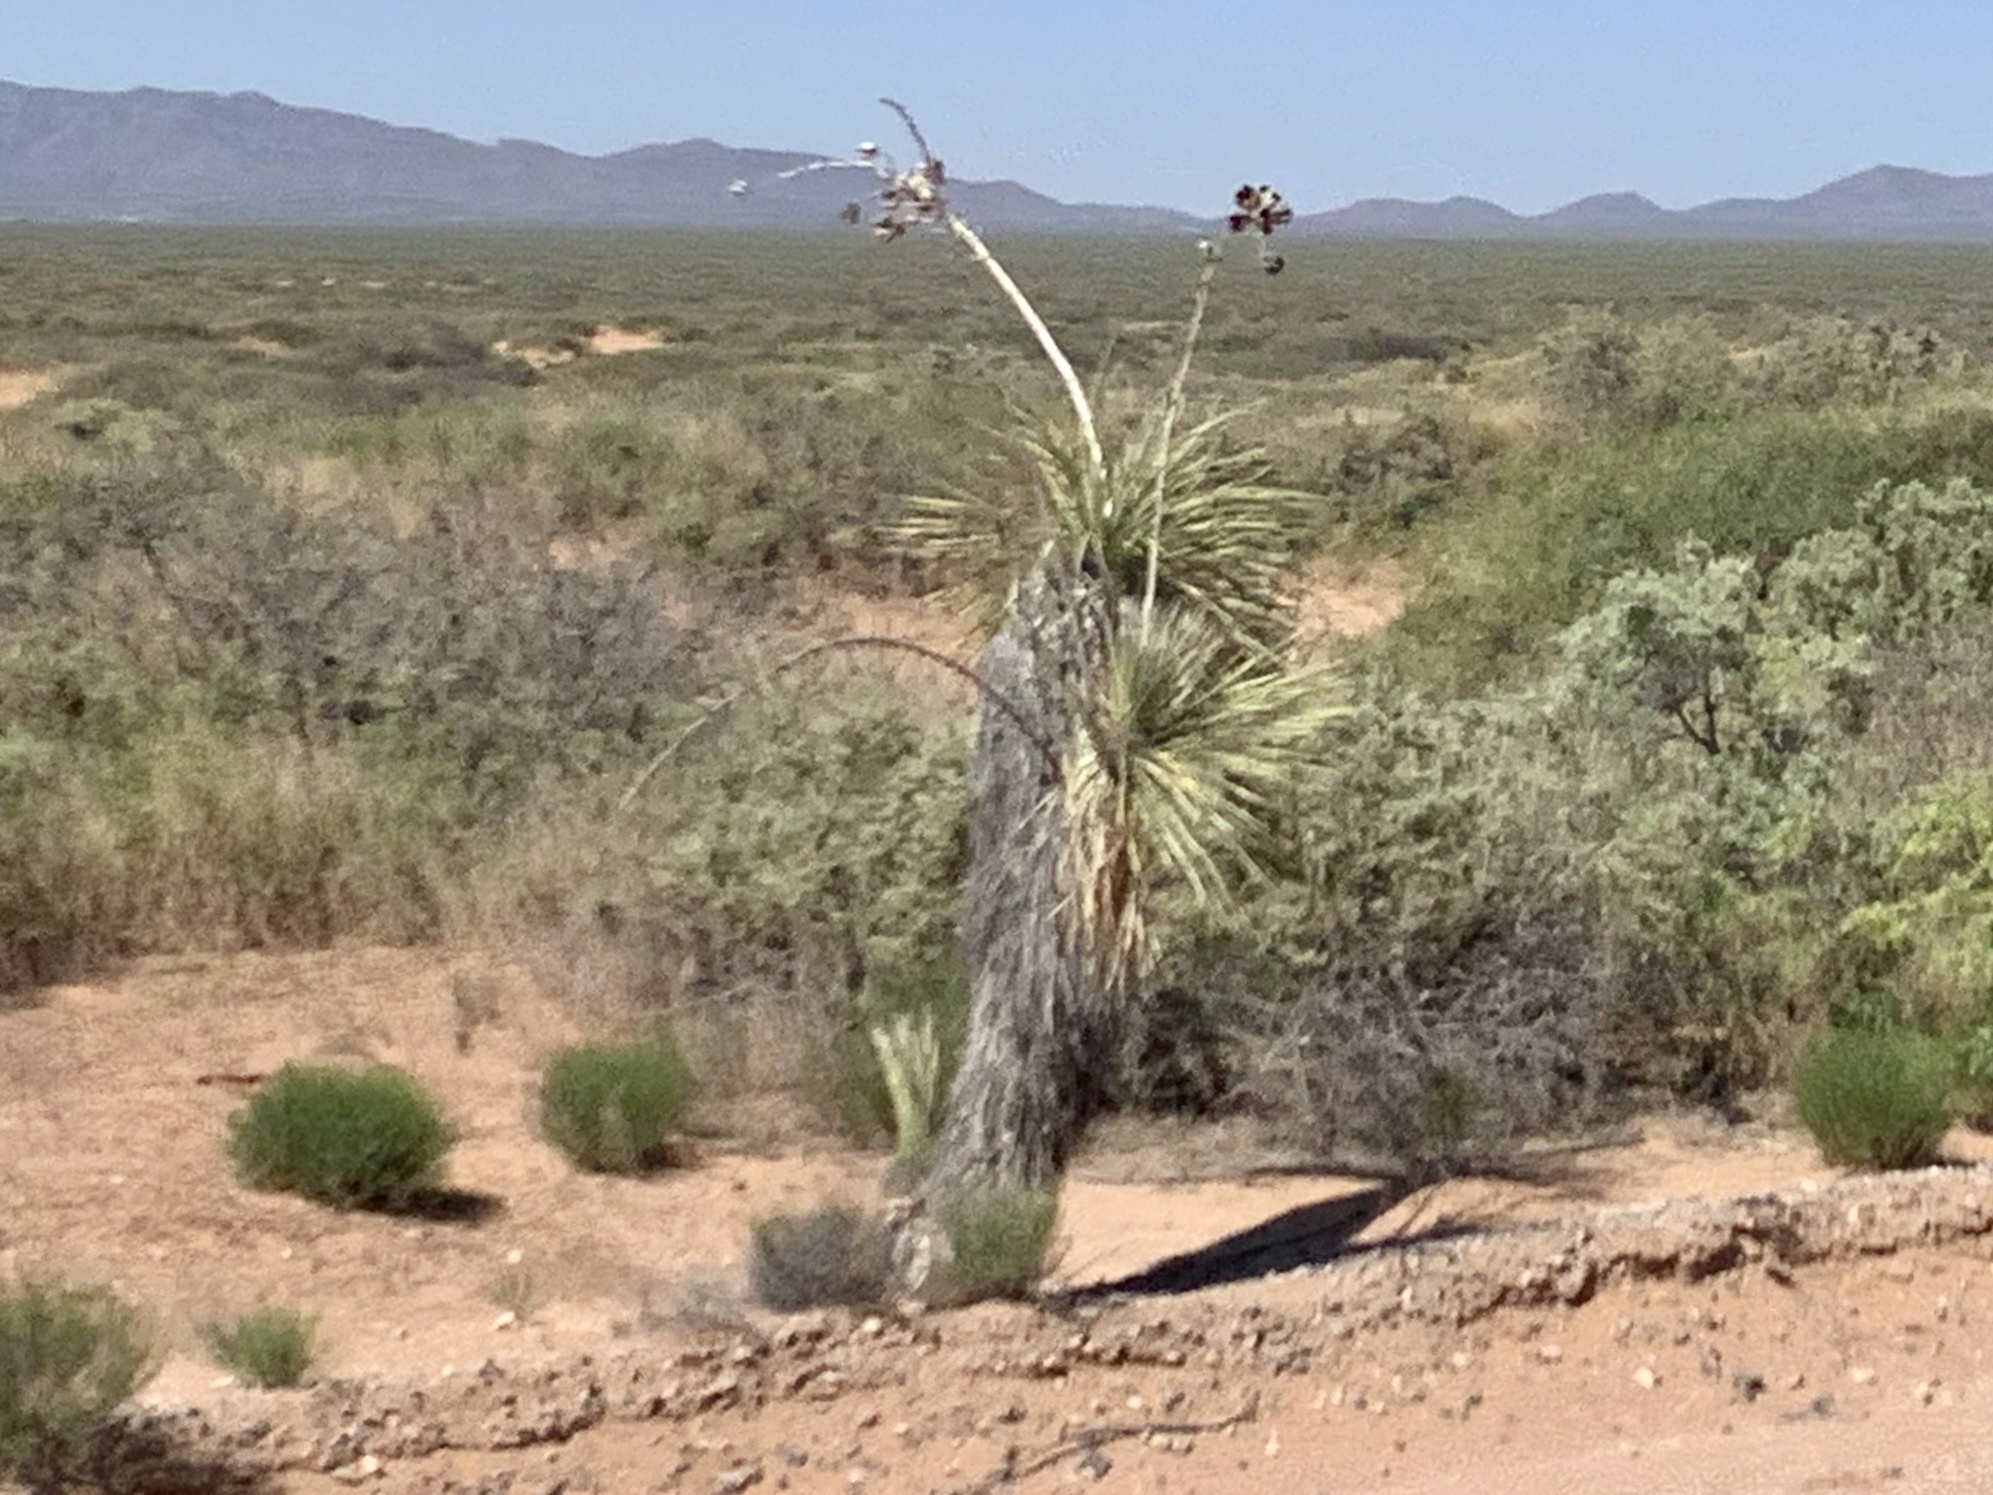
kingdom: Plantae
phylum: Tracheophyta
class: Liliopsida
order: Asparagales
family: Asparagaceae
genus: Yucca
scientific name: Yucca elata
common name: Palmella
